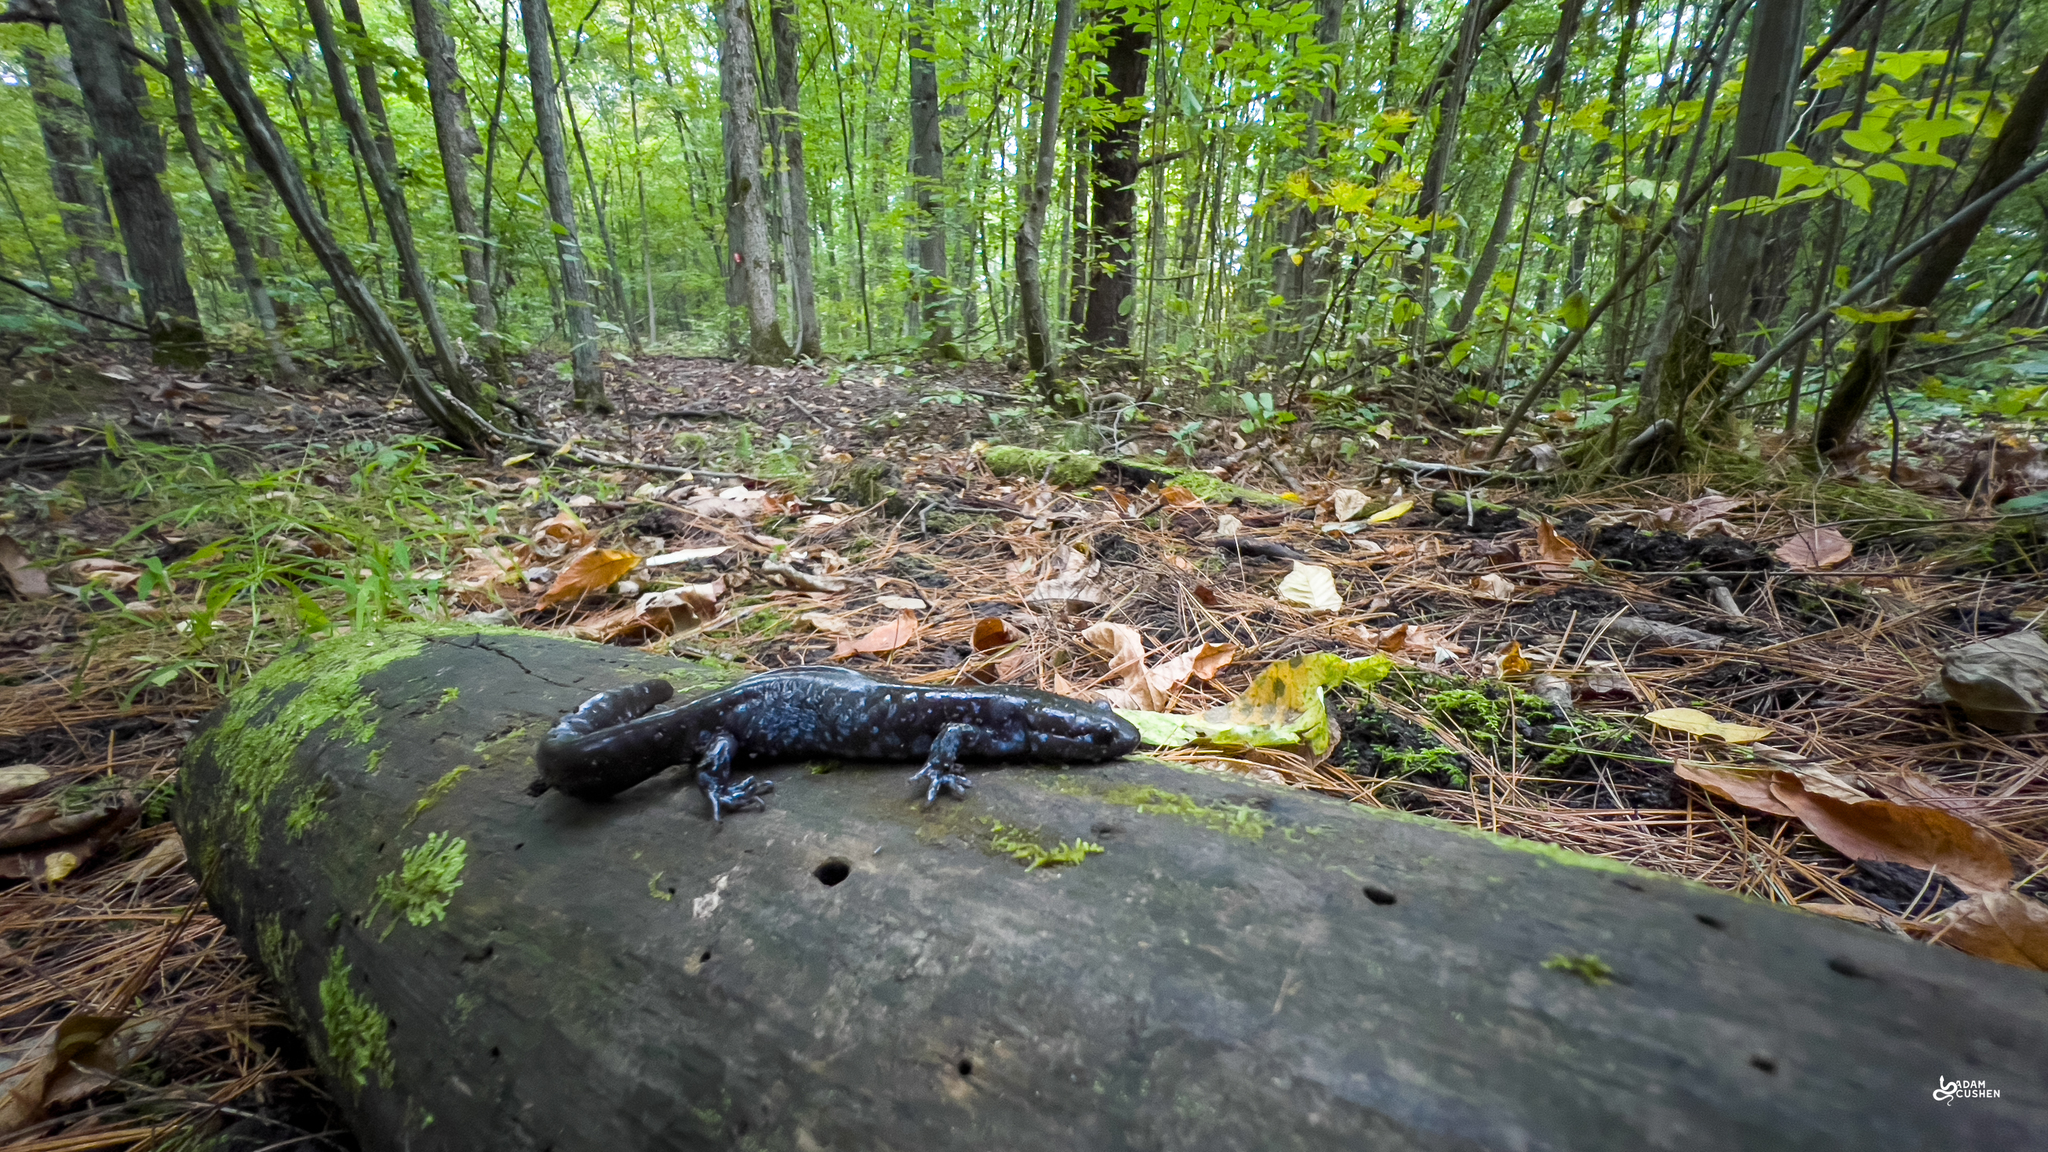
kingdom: Animalia
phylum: Chordata
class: Amphibia
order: Caudata
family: Ambystomatidae
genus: Ambystoma
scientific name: Ambystoma laterale
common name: Blue-spotted salamander
